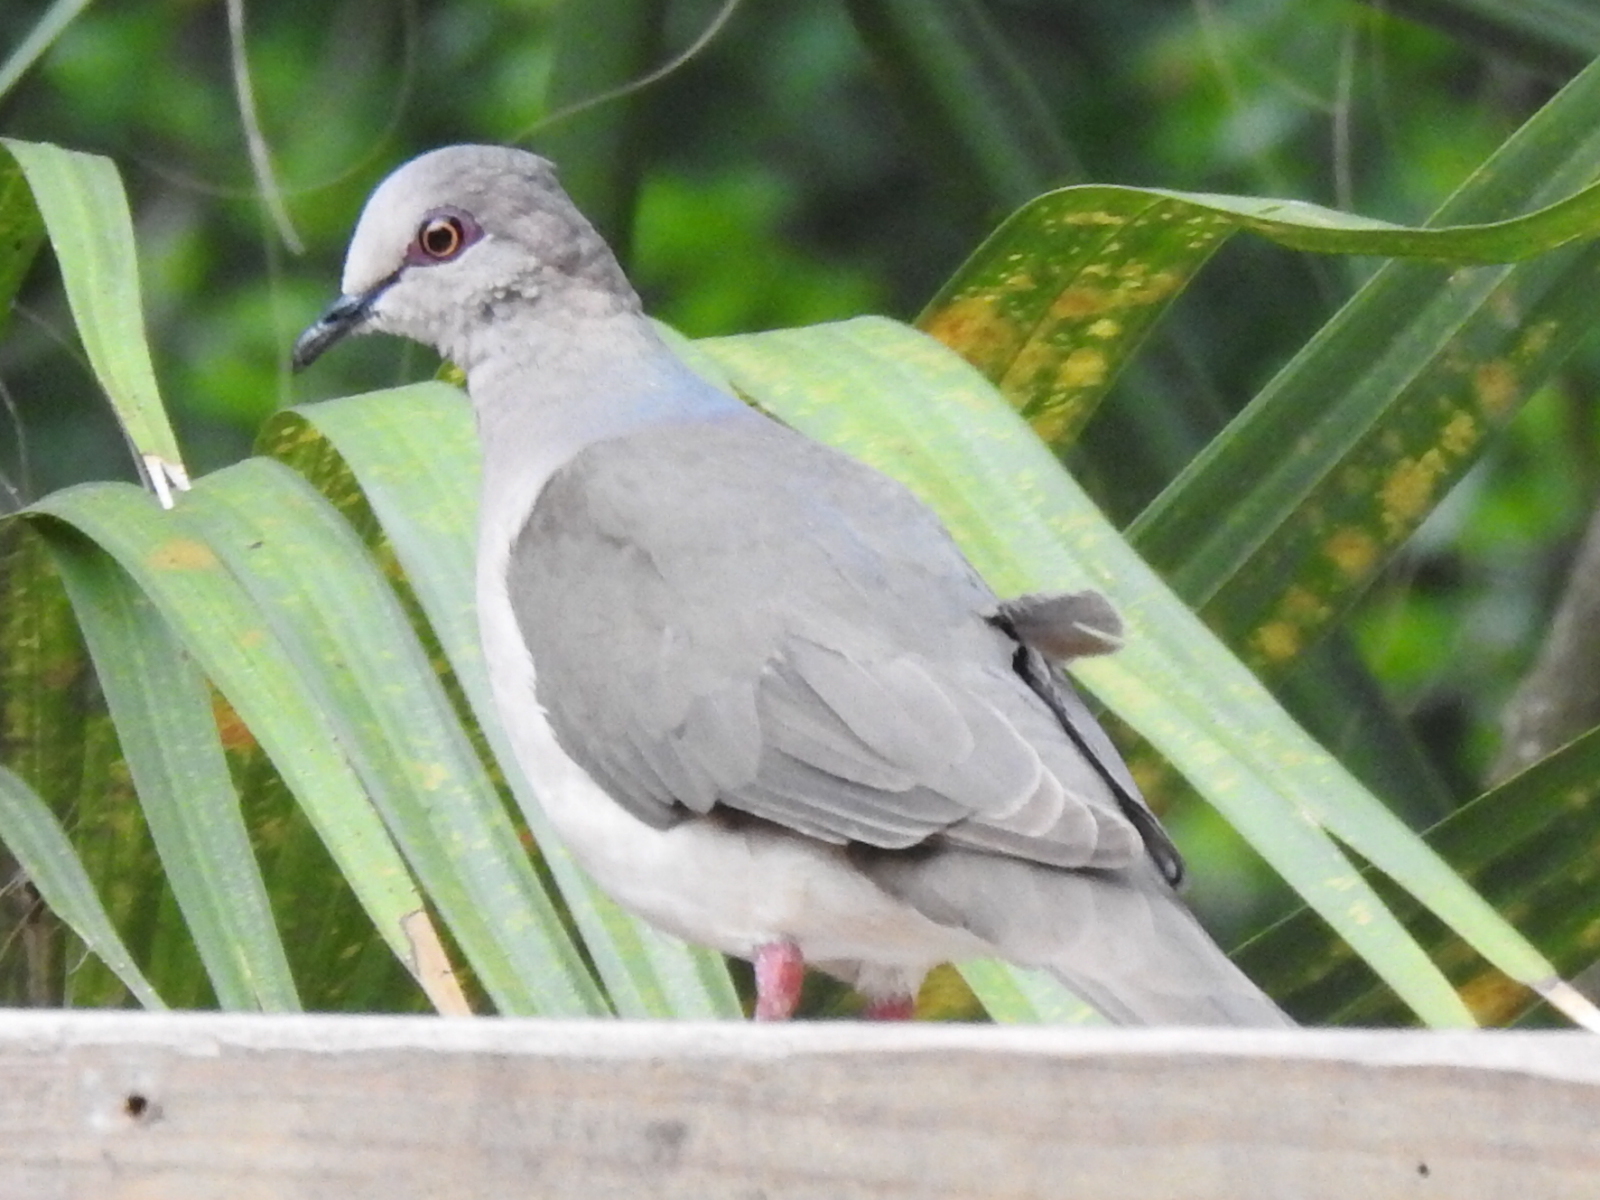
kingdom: Animalia
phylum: Chordata
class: Aves
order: Columbiformes
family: Columbidae
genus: Leptotila
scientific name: Leptotila verreauxi
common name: White-tipped dove
